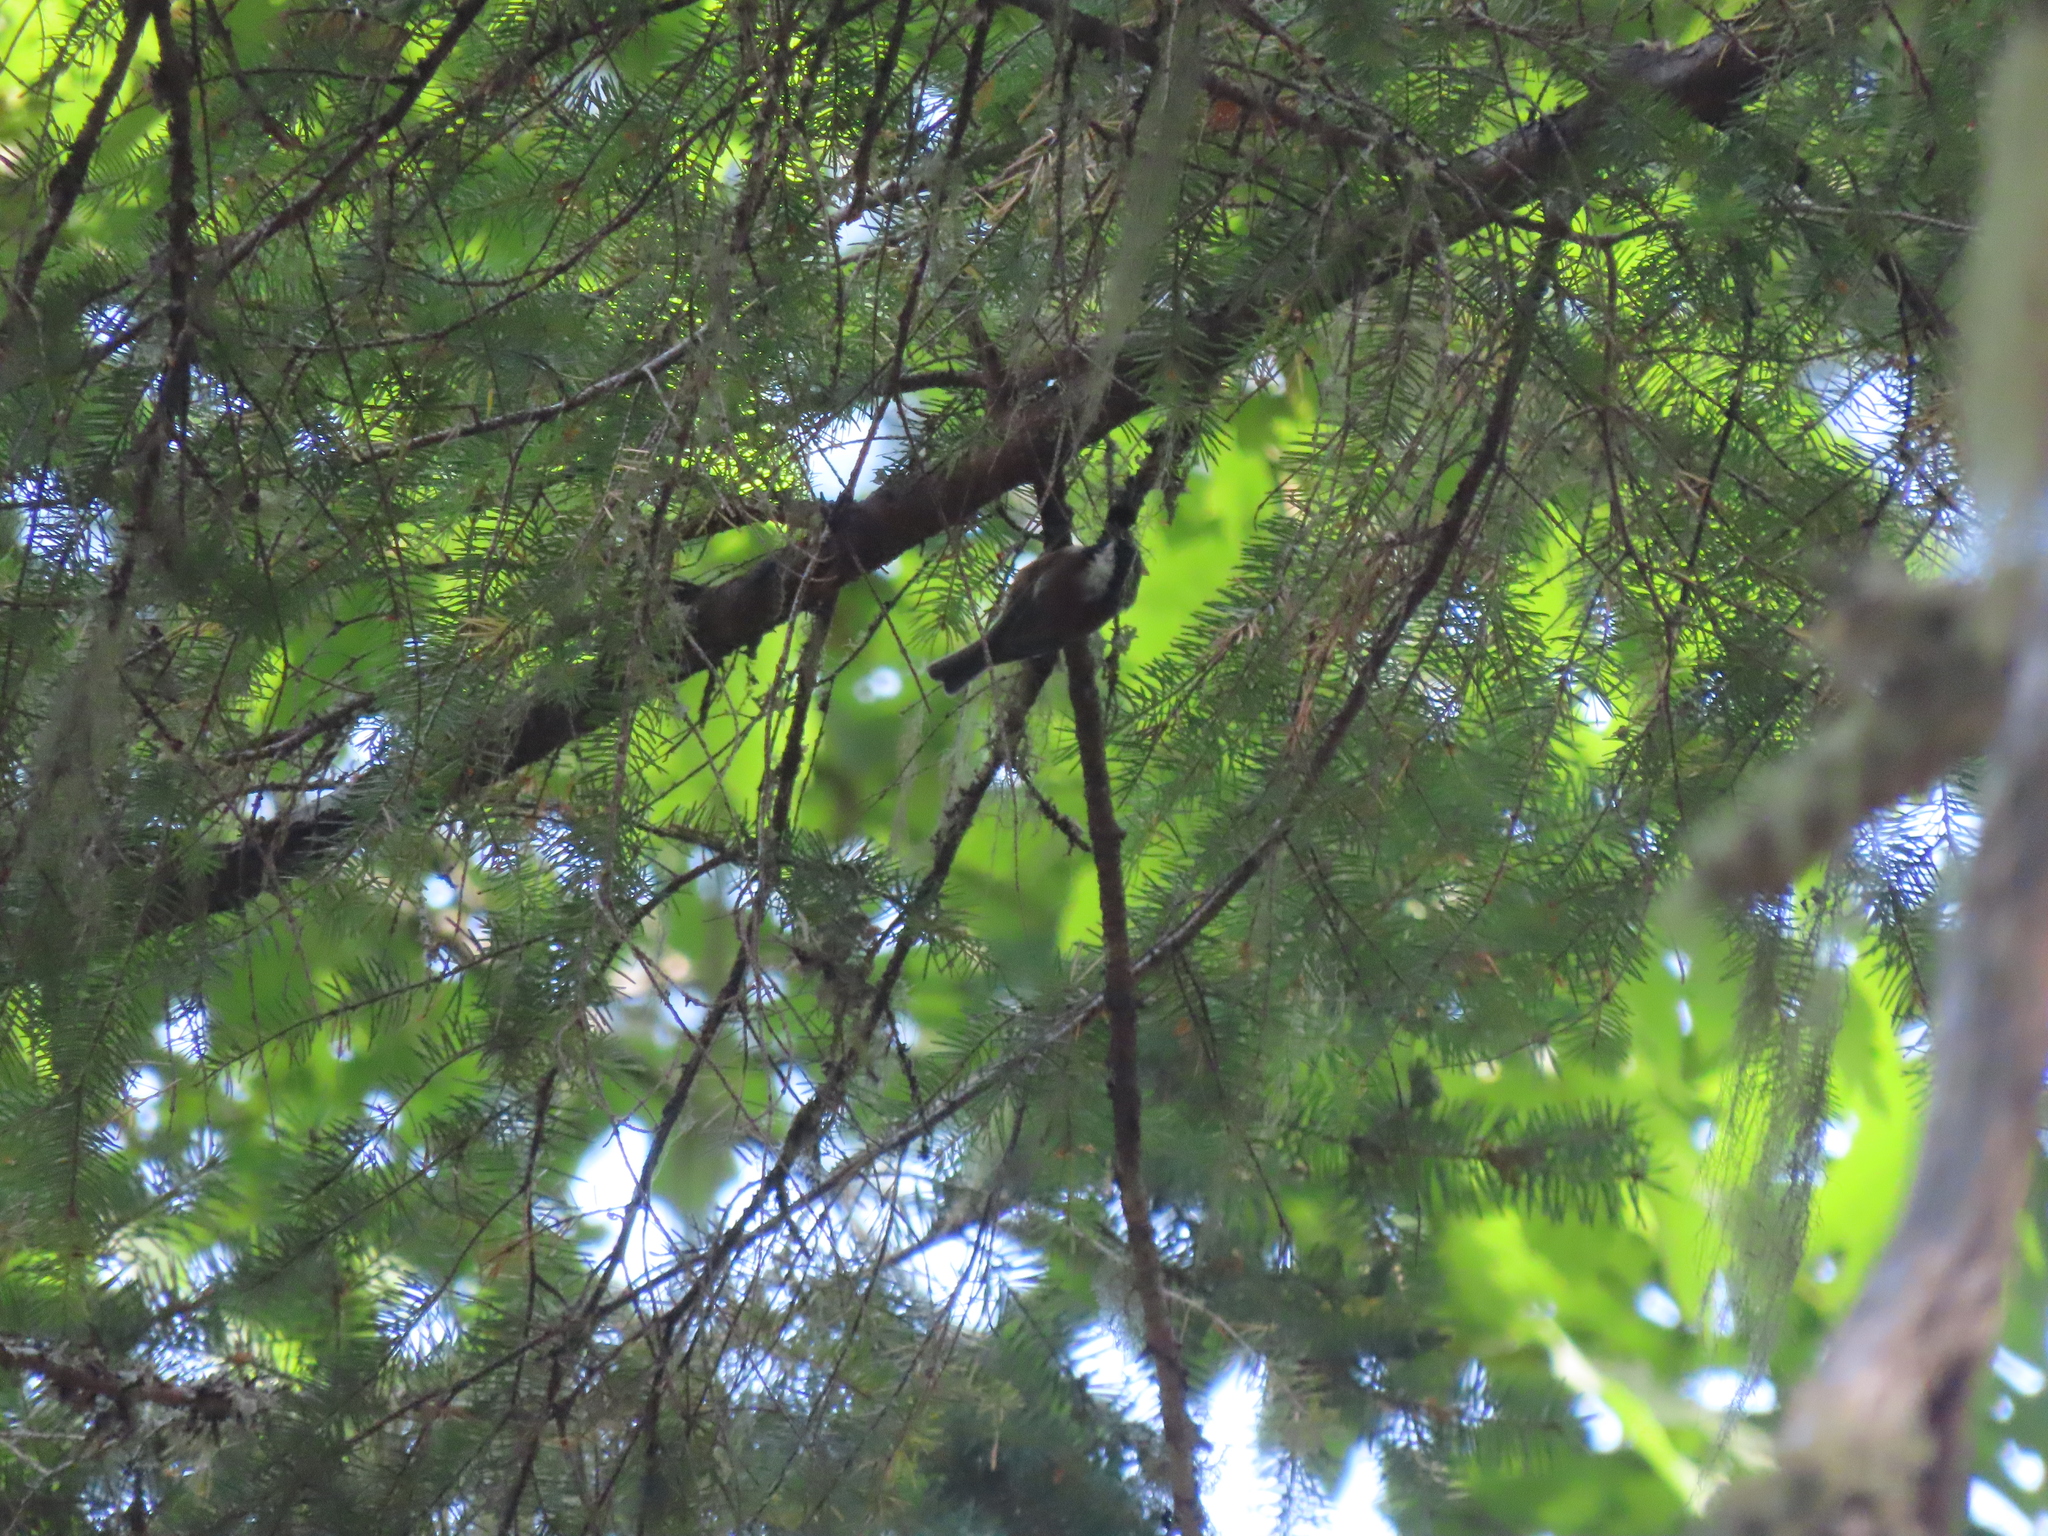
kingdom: Animalia
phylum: Chordata
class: Aves
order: Passeriformes
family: Paridae
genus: Poecile
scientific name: Poecile rufescens
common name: Chestnut-backed chickadee
